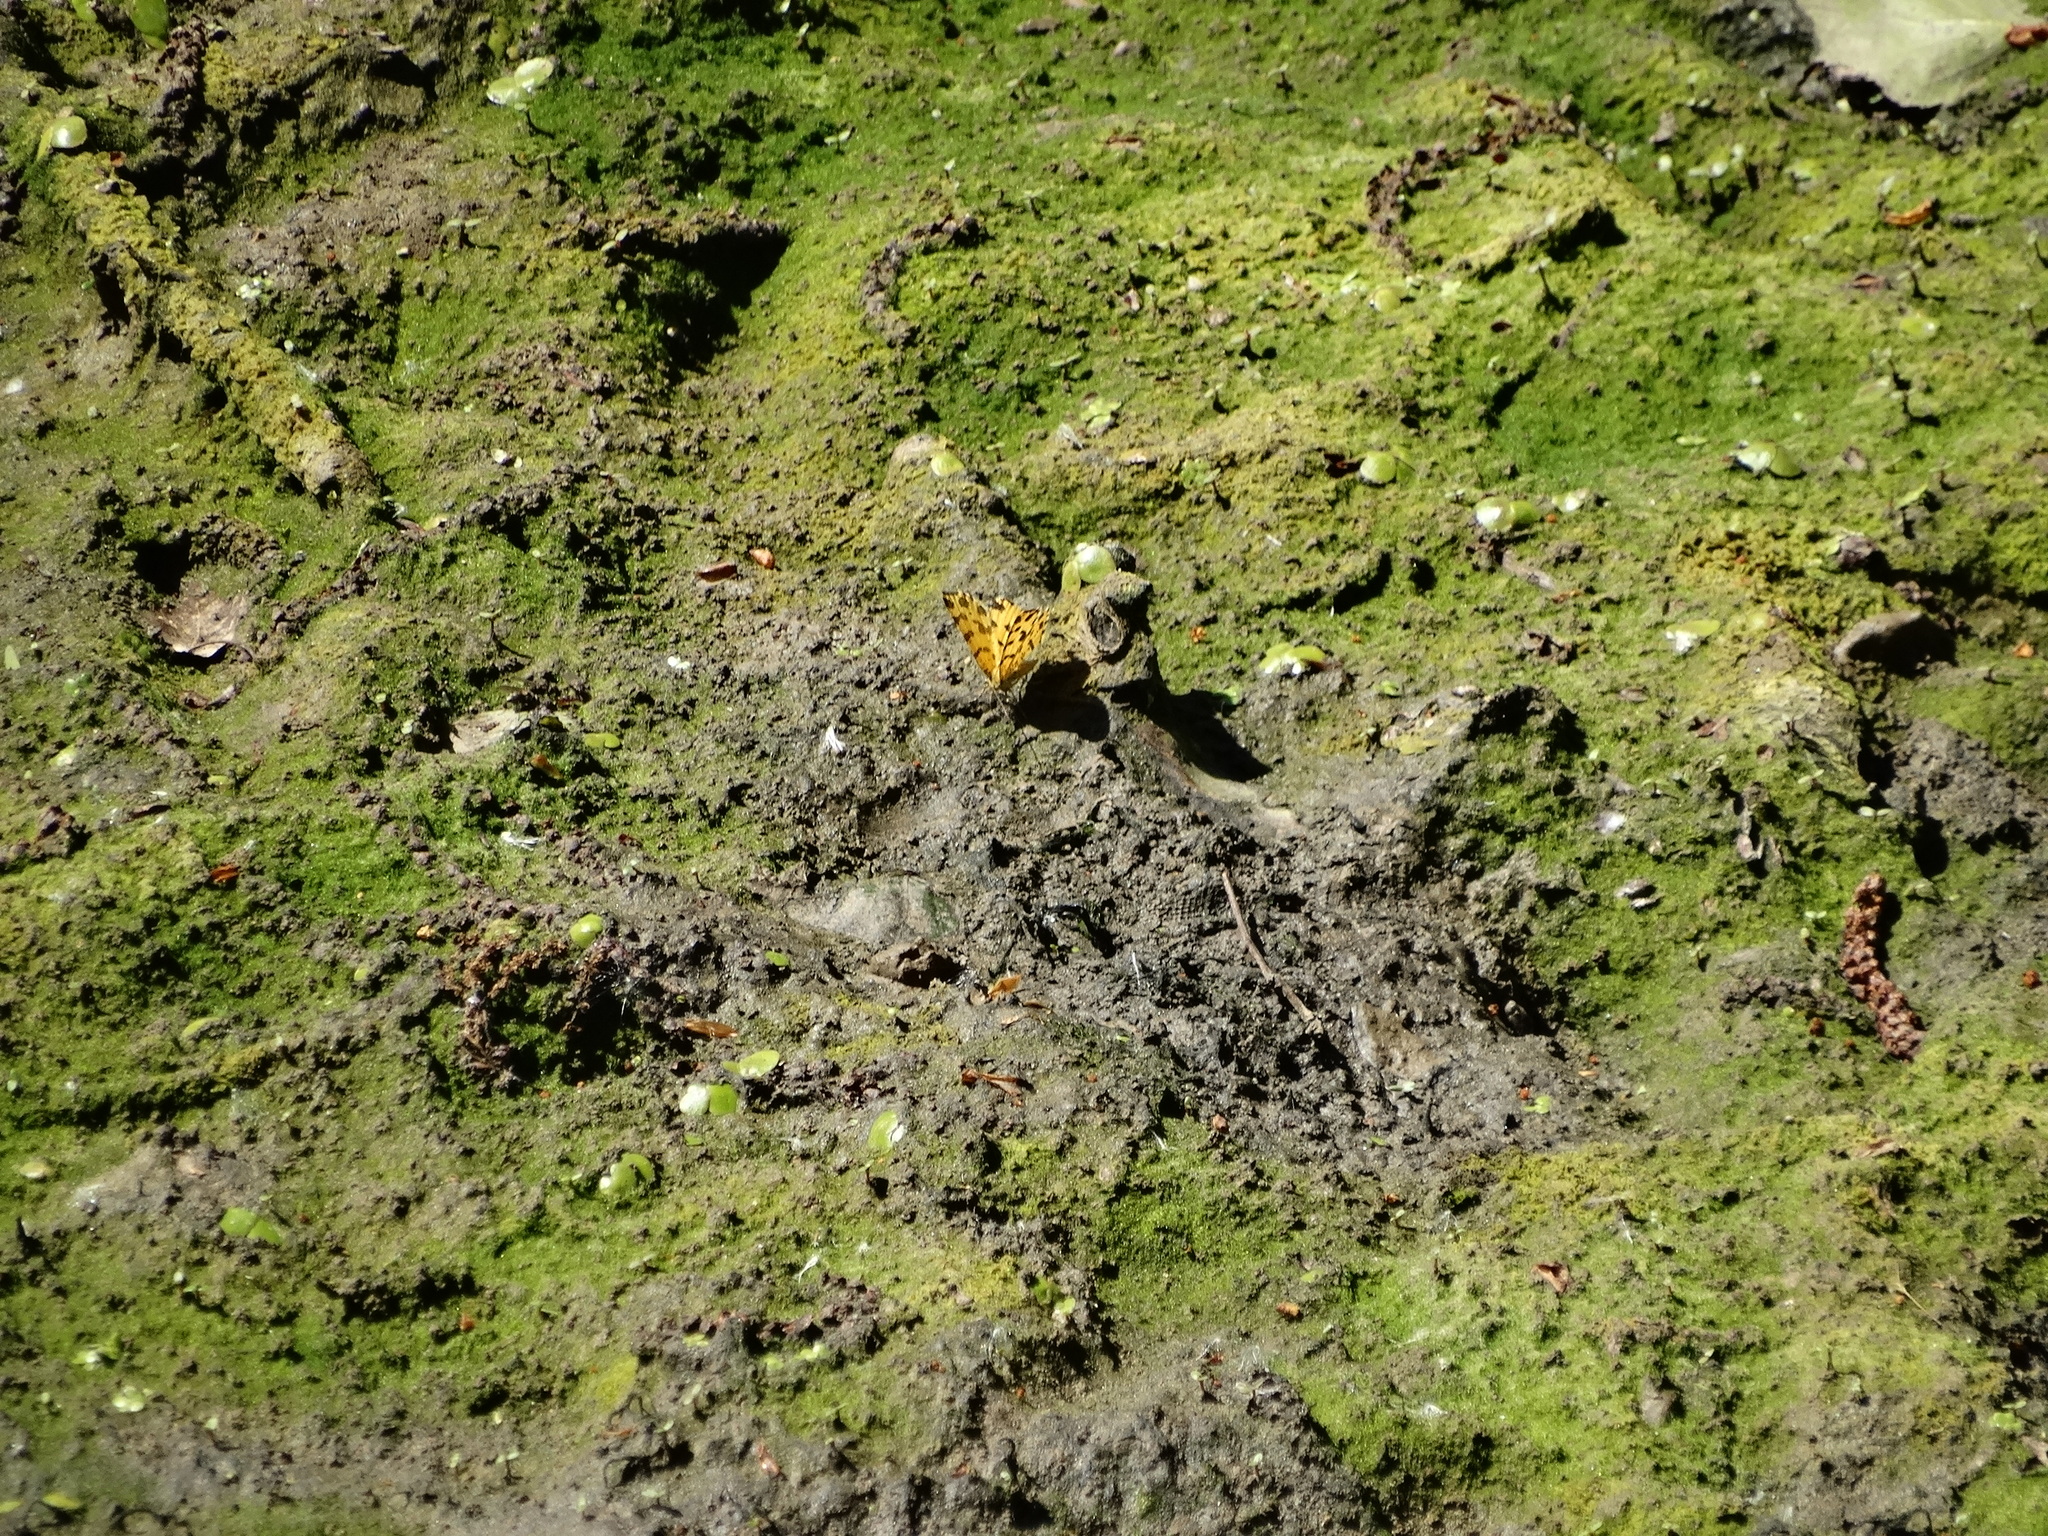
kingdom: Animalia
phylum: Arthropoda
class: Insecta
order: Lepidoptera
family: Geometridae
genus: Pseudopanthera
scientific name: Pseudopanthera macularia
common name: Speckled yellow
